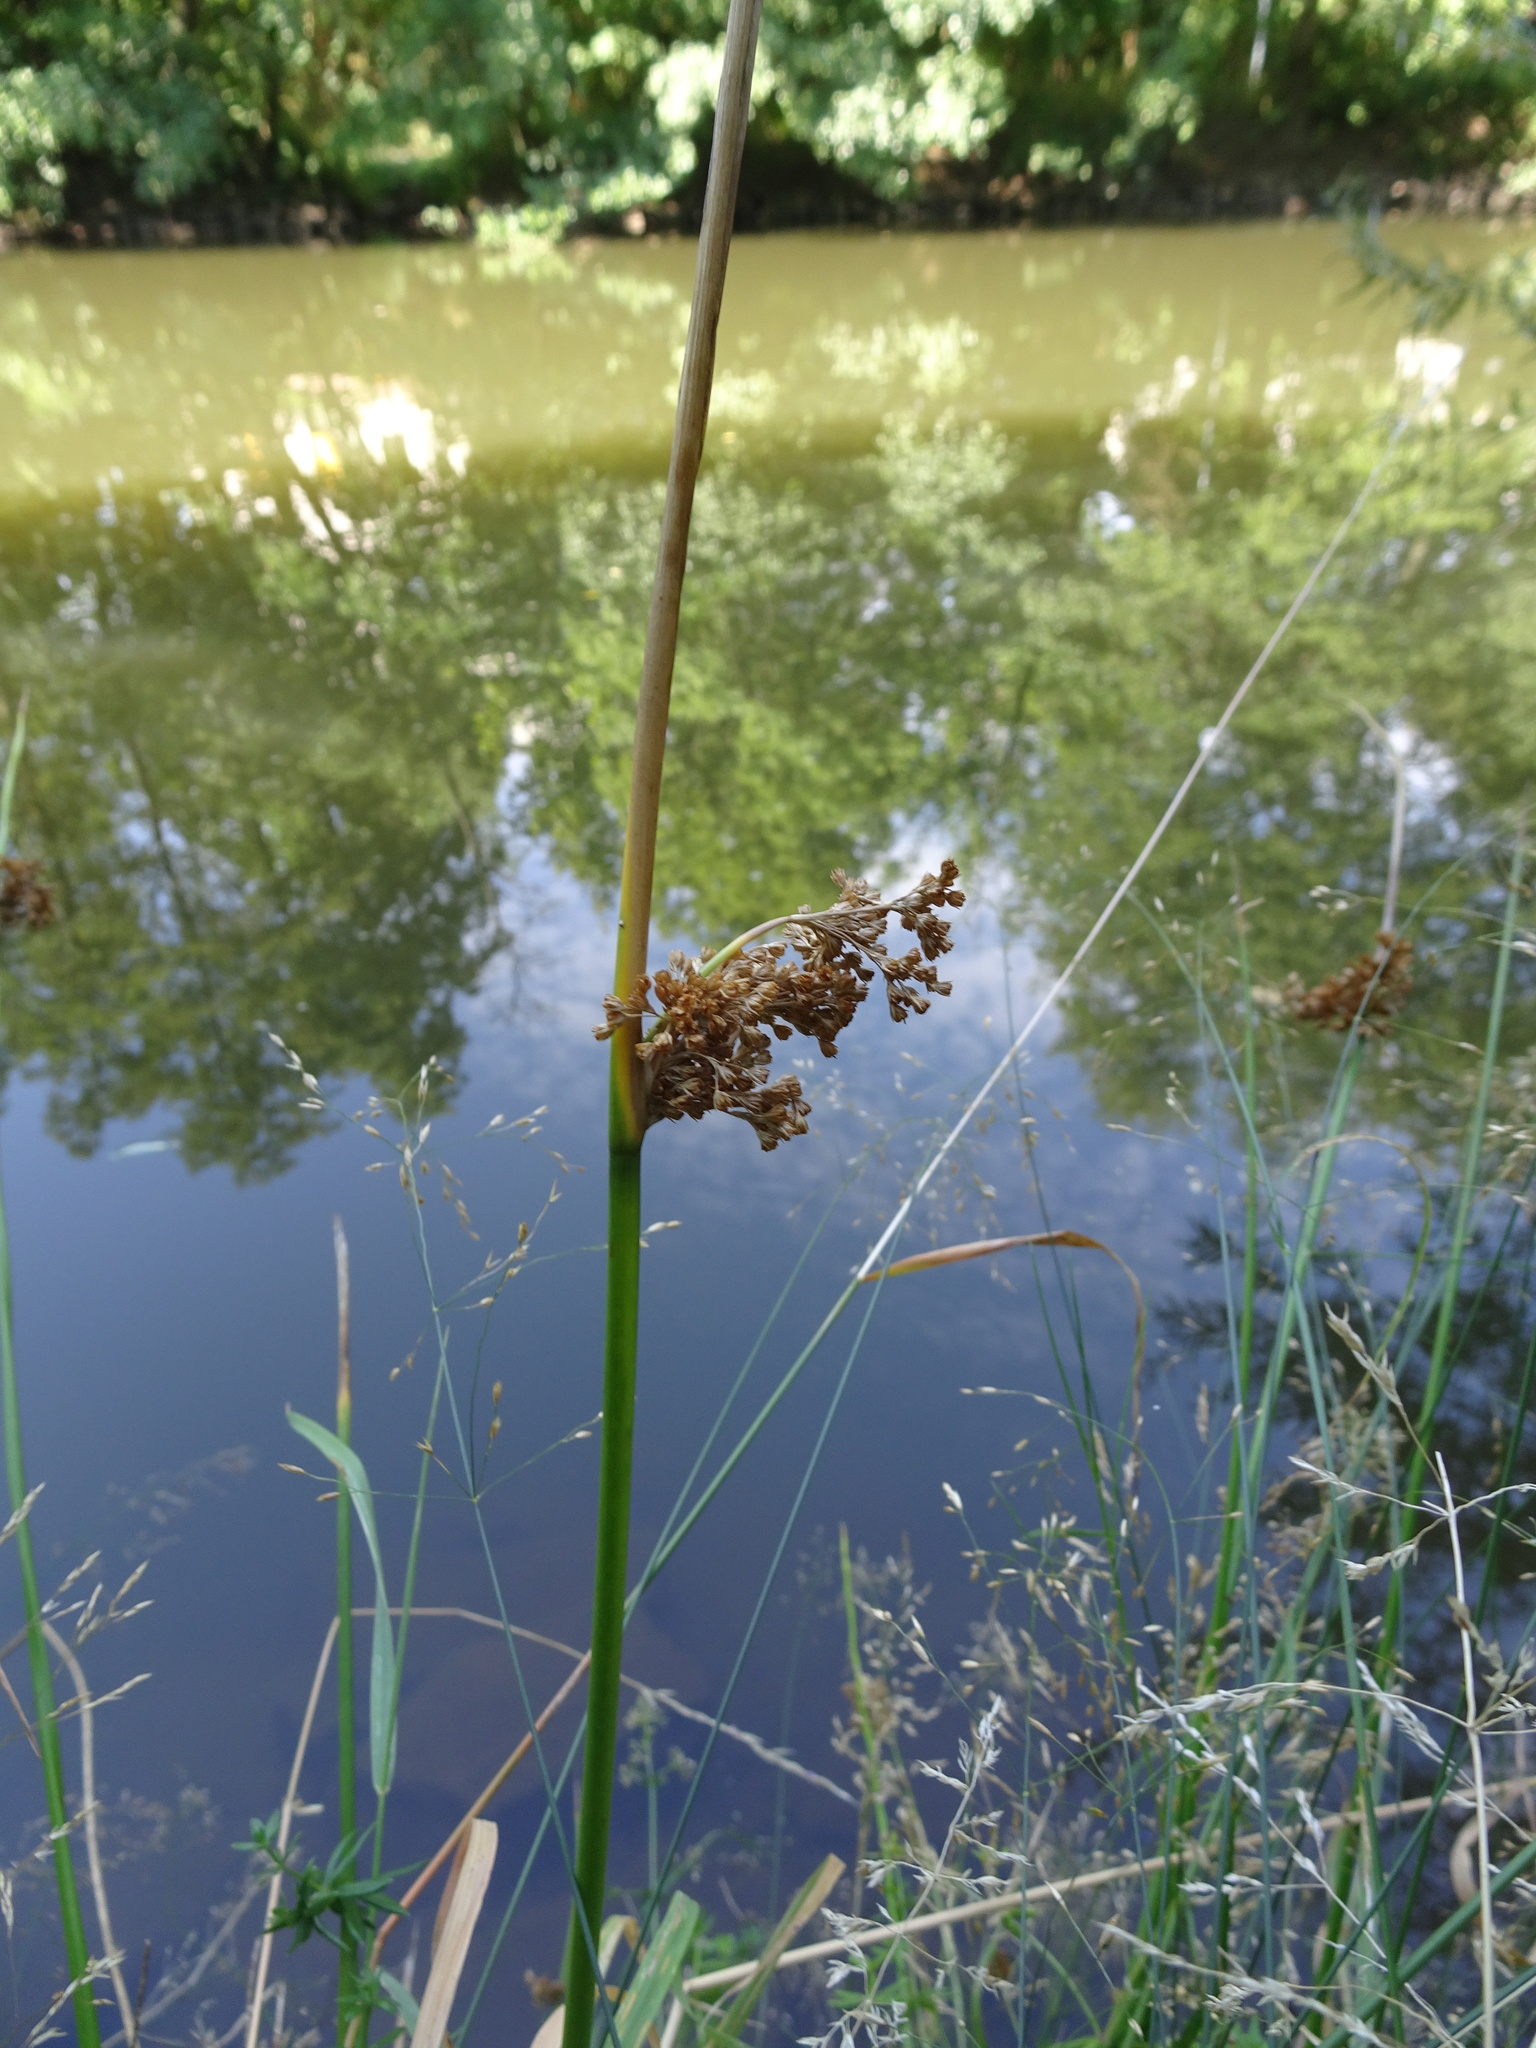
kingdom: Plantae
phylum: Tracheophyta
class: Liliopsida
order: Poales
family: Juncaceae
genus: Juncus
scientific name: Juncus effusus
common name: Soft rush
